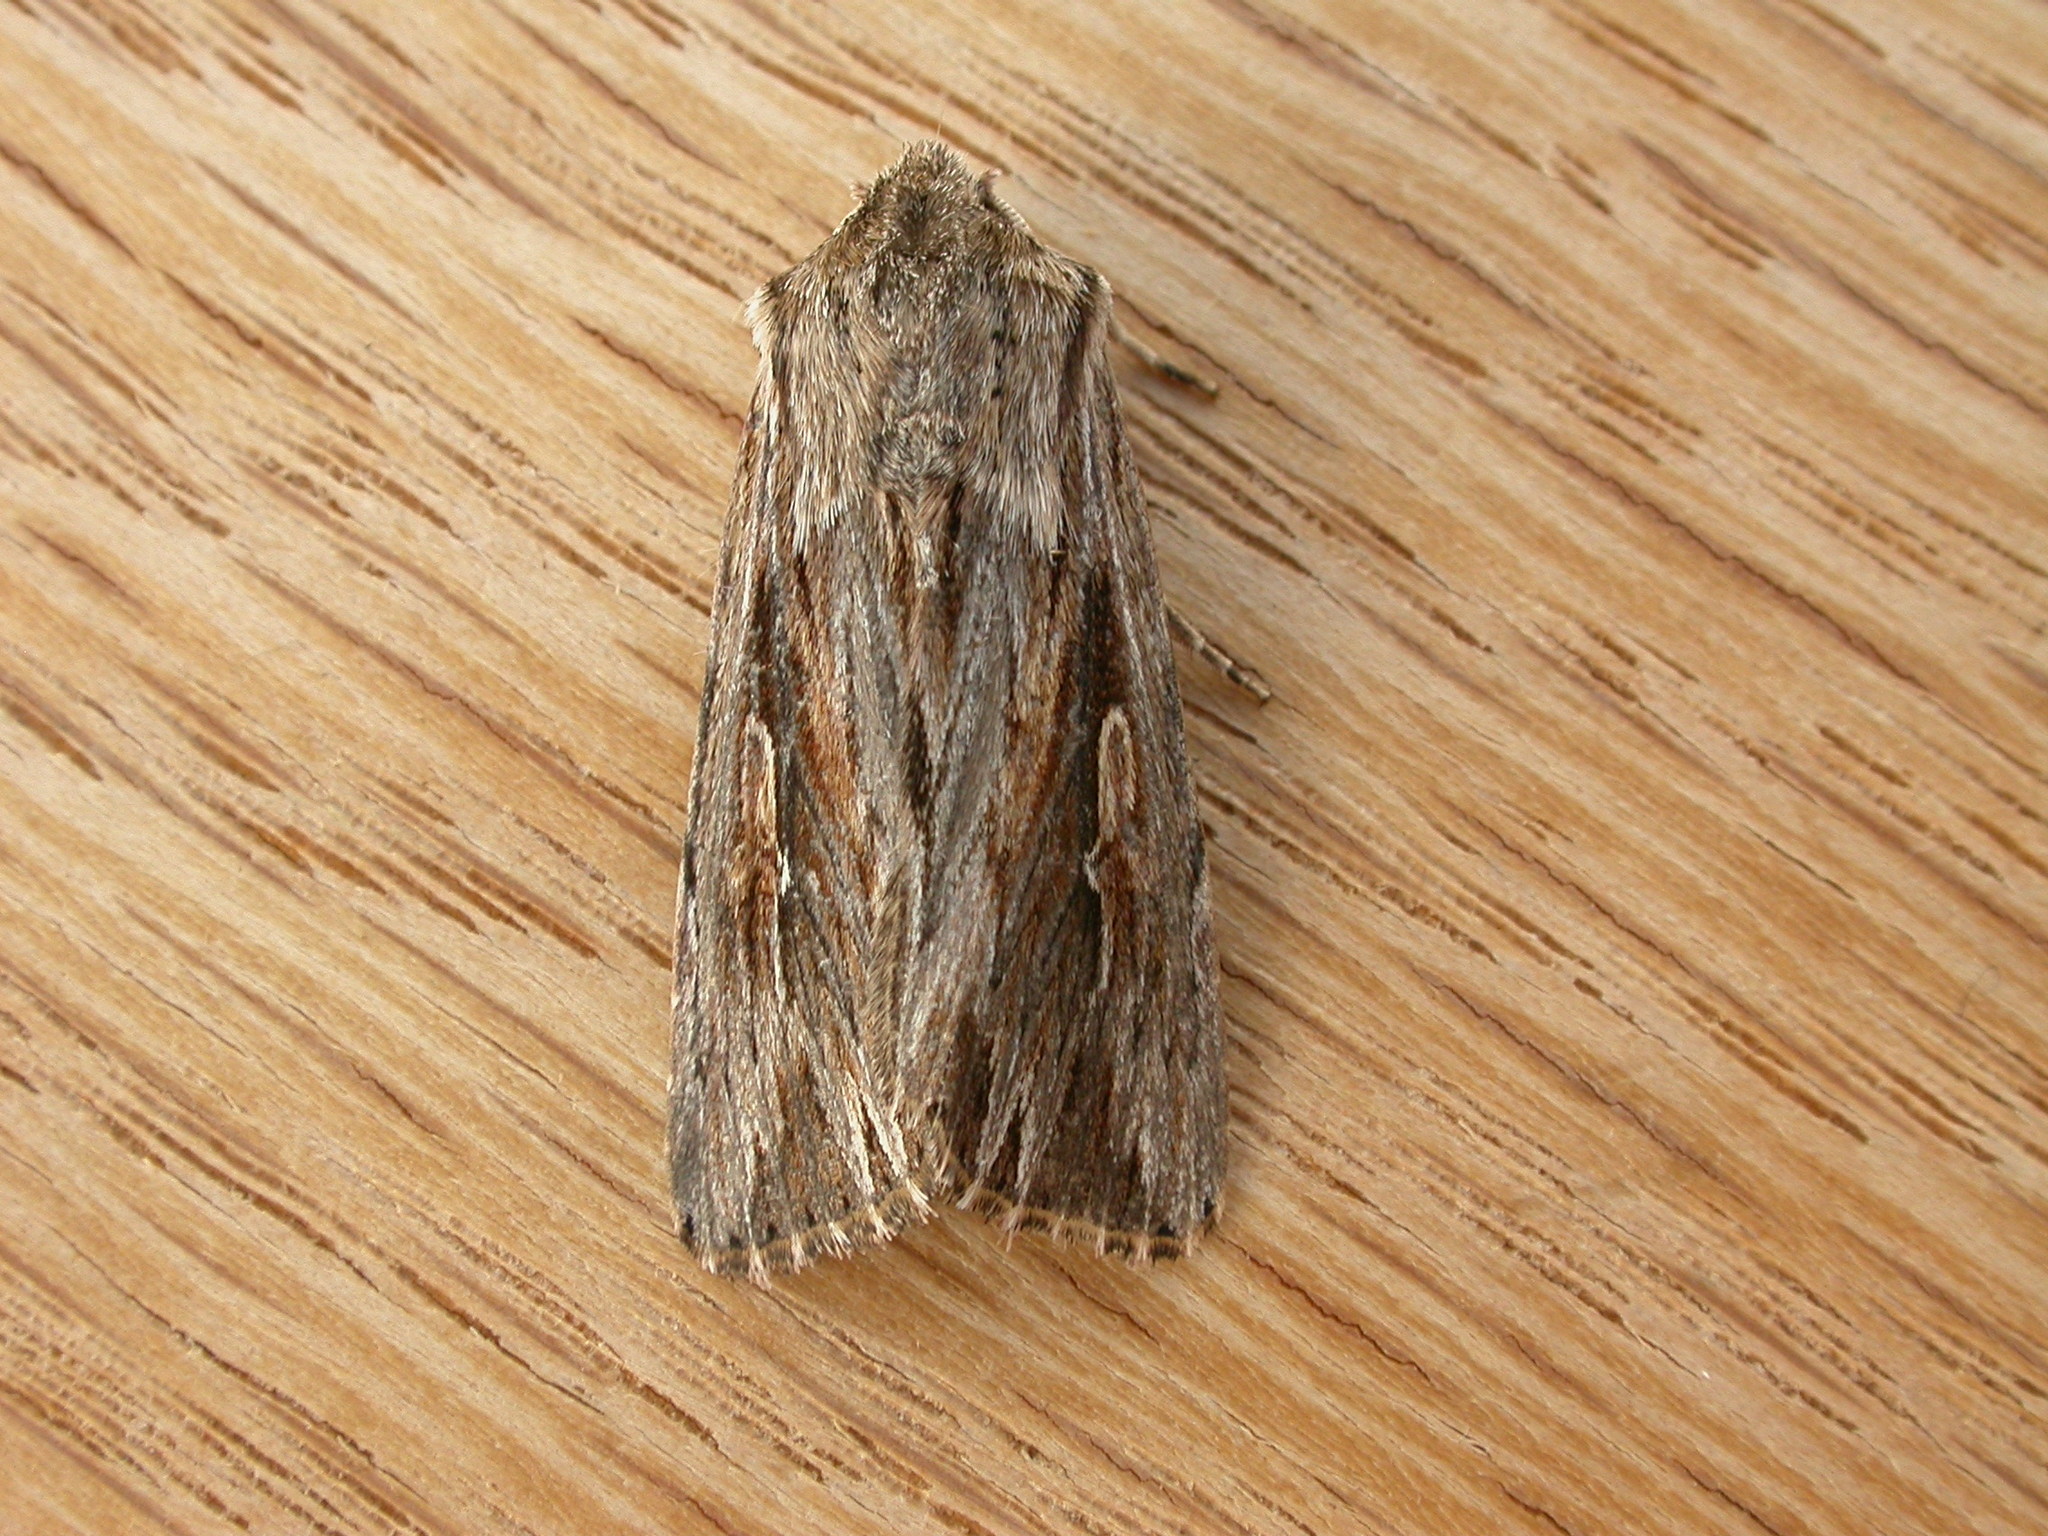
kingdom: Animalia
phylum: Arthropoda
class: Insecta
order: Lepidoptera
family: Noctuidae
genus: Persectania
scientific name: Persectania ewingii
